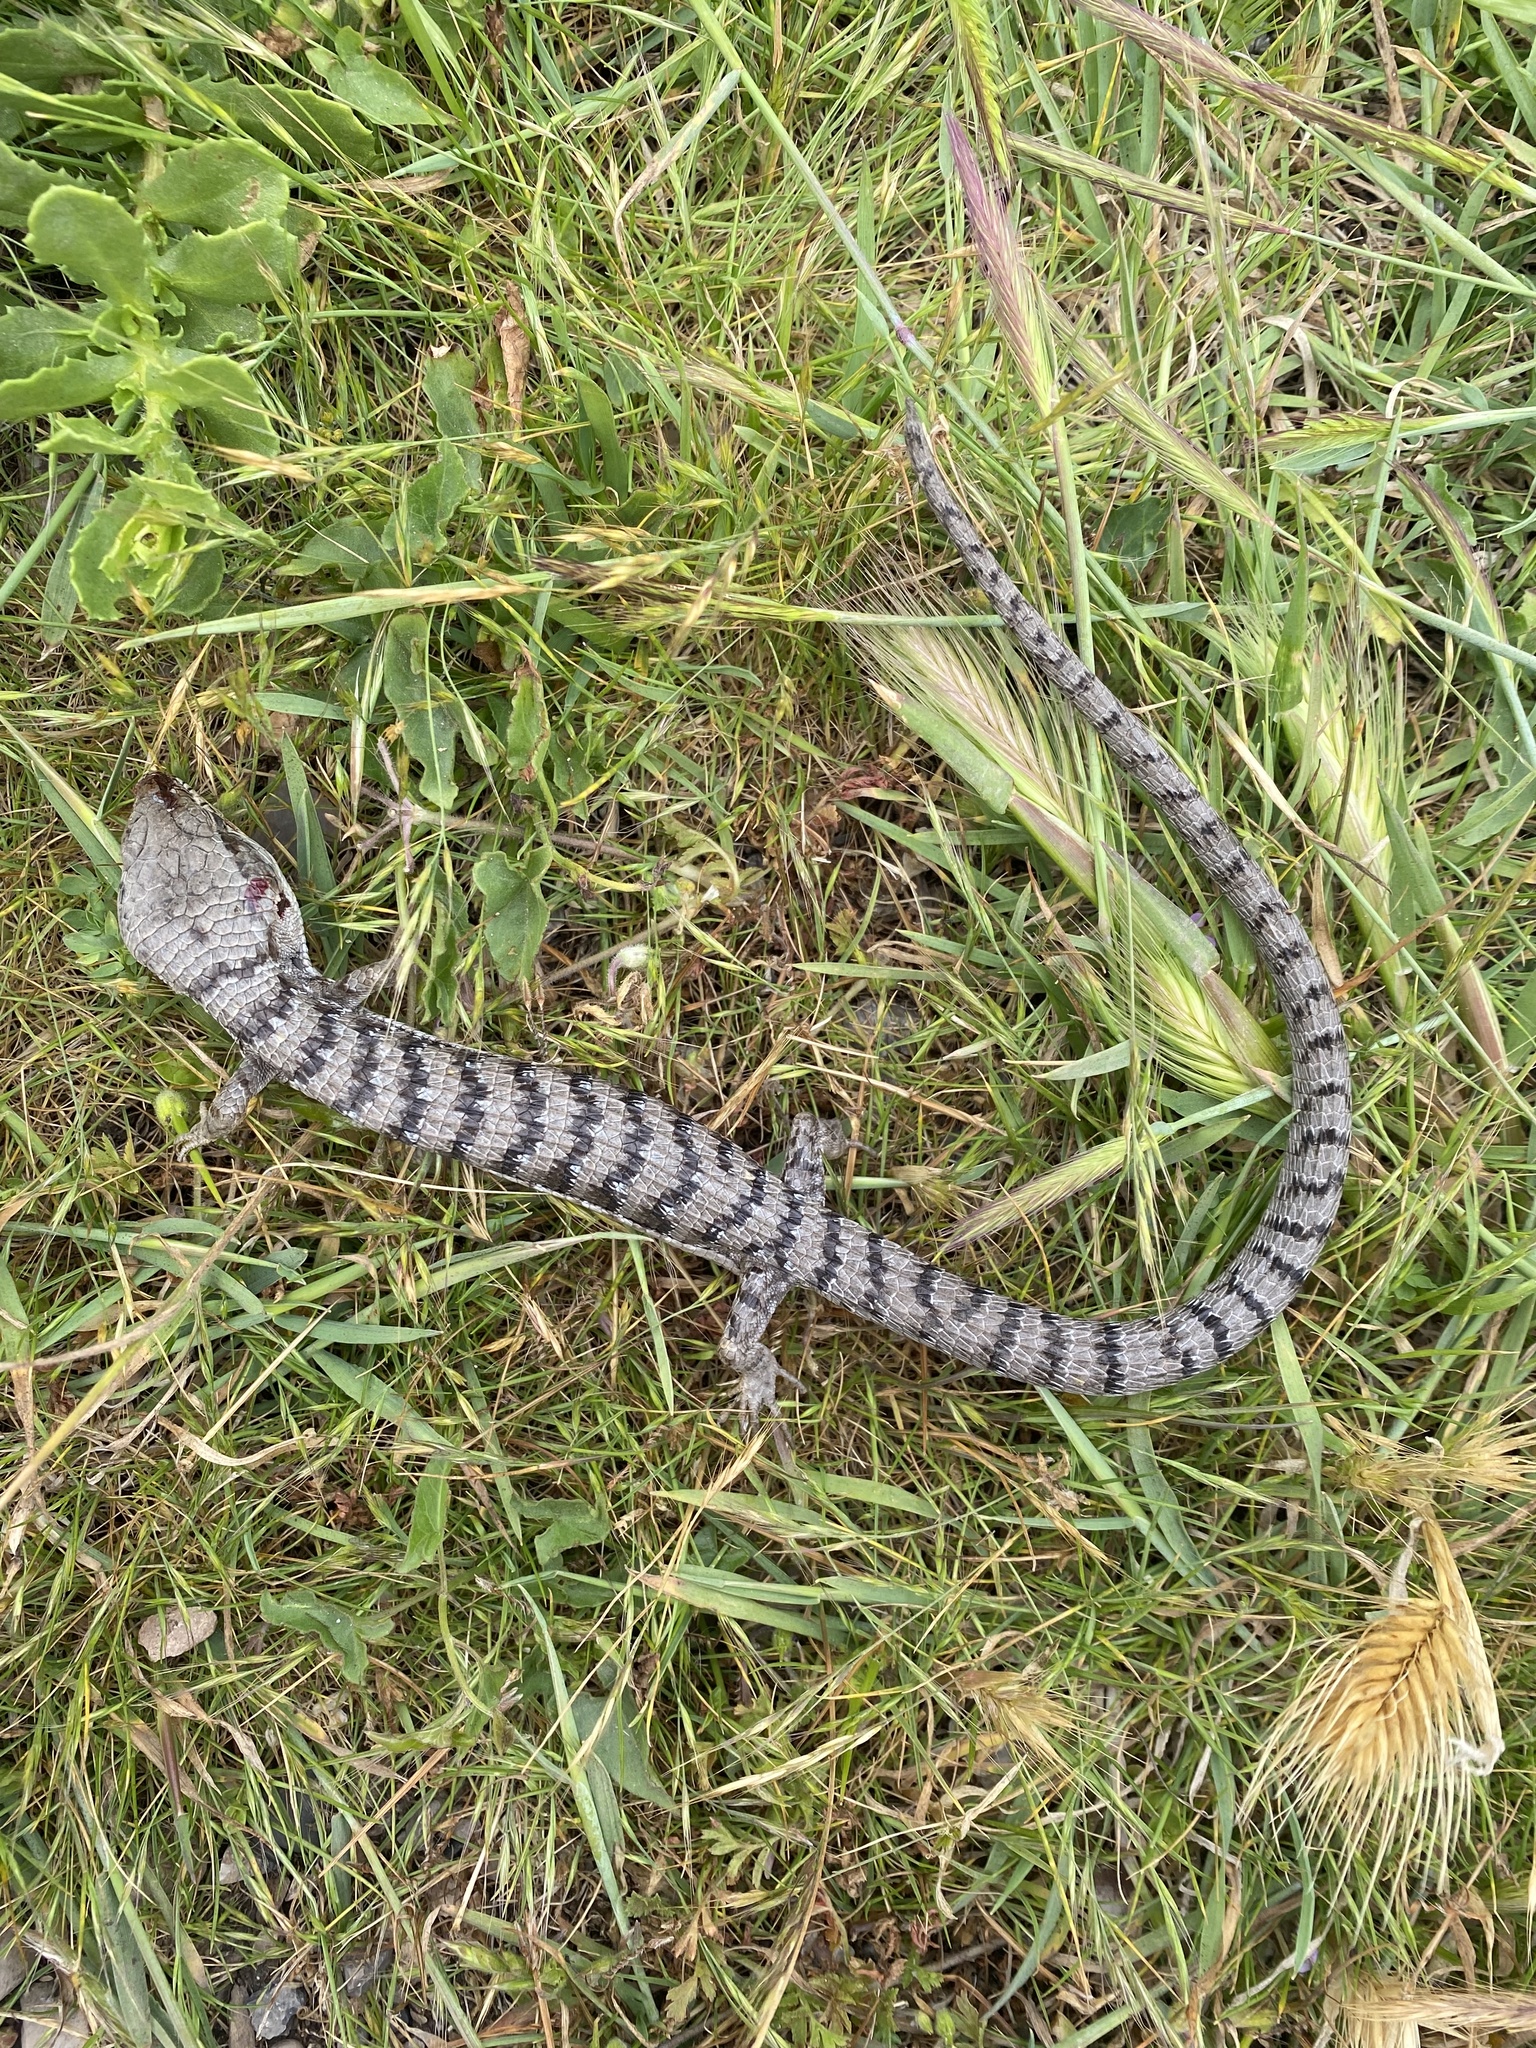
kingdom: Animalia
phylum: Chordata
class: Squamata
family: Anguidae
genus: Elgaria
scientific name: Elgaria multicarinata
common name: Southern alligator lizard
